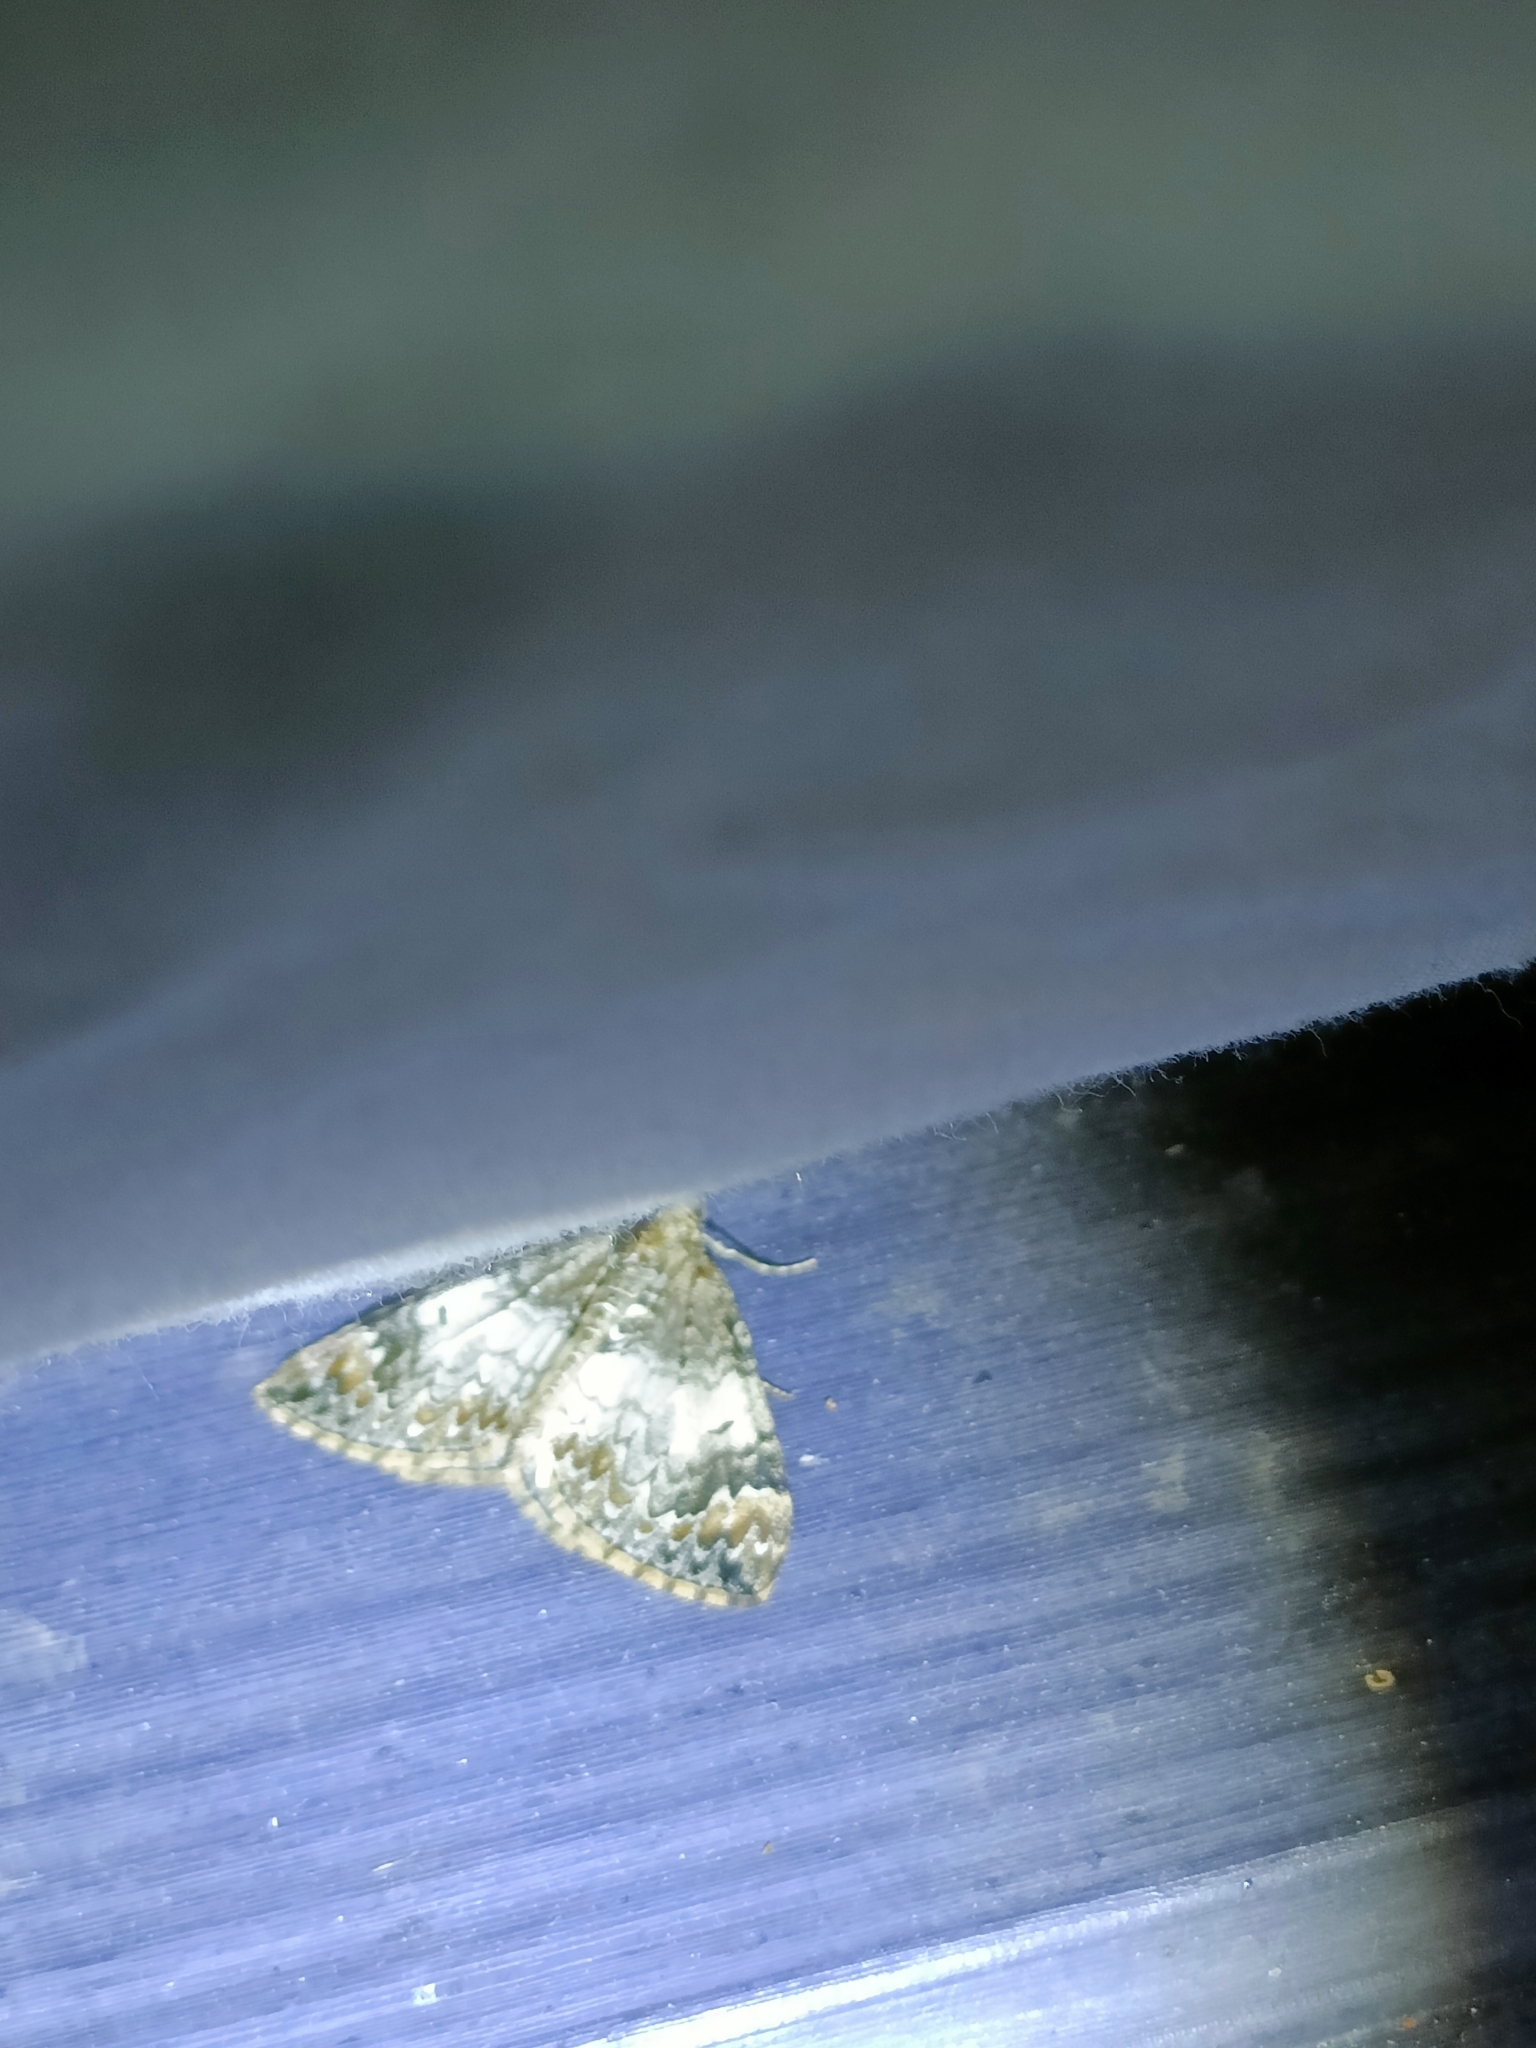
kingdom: Animalia
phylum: Arthropoda
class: Insecta
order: Lepidoptera
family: Geometridae
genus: Dysstroma
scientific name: Dysstroma truncata
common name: Common marbled carpet
